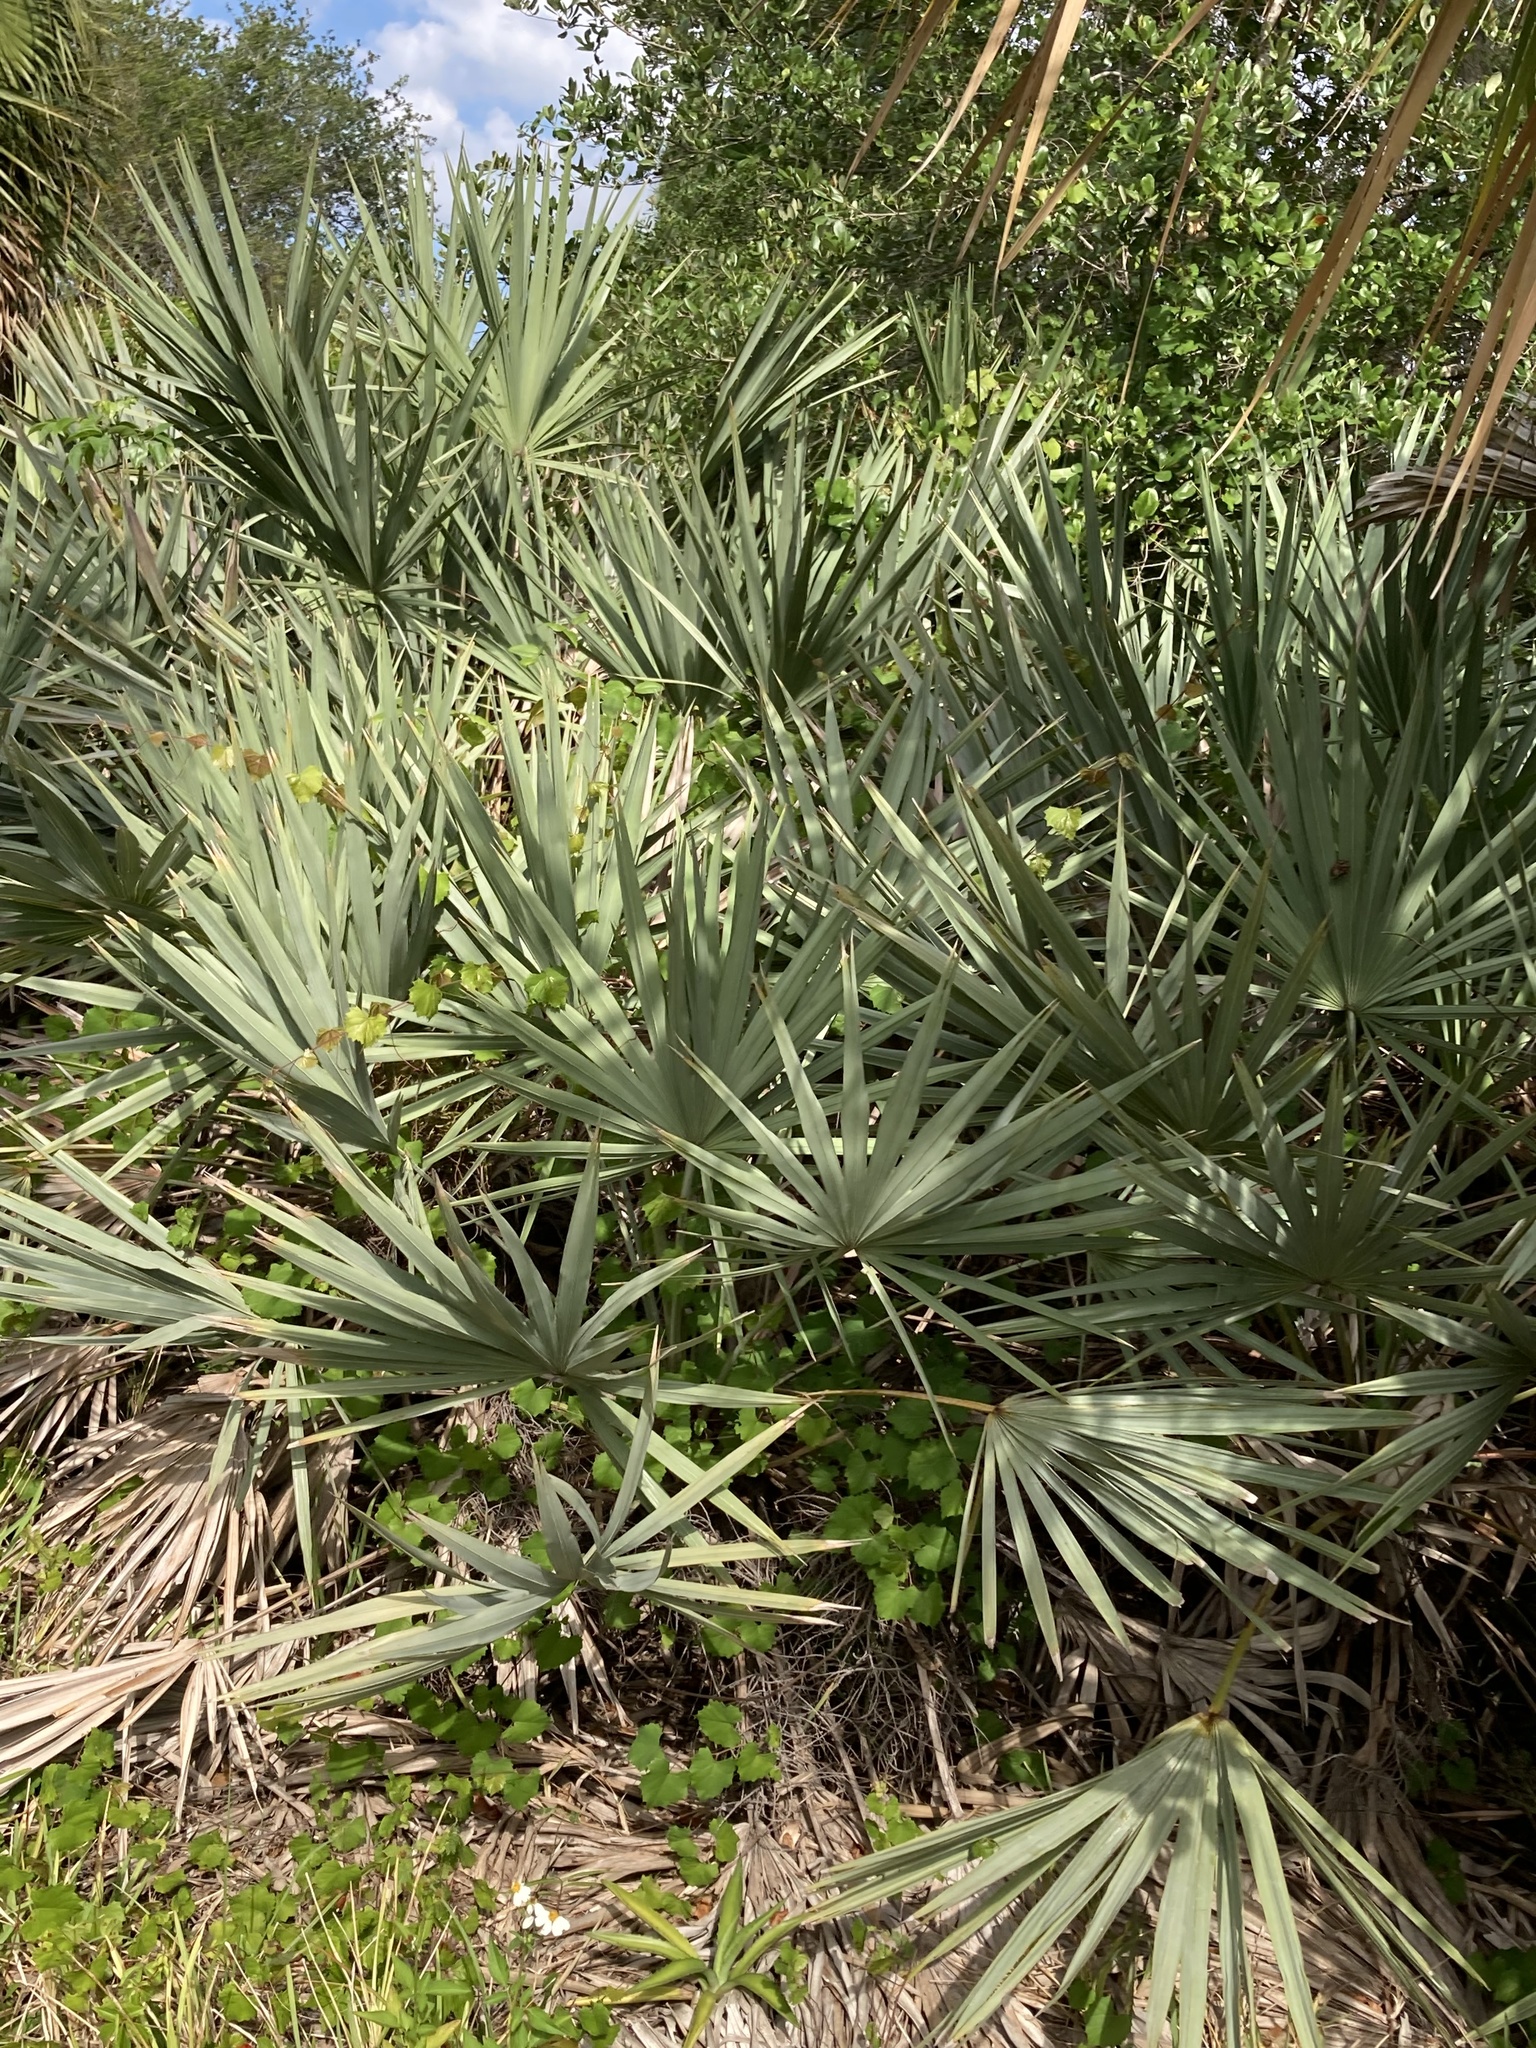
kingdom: Plantae
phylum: Tracheophyta
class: Liliopsida
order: Arecales
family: Arecaceae
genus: Serenoa
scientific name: Serenoa repens
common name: Saw-palmetto
